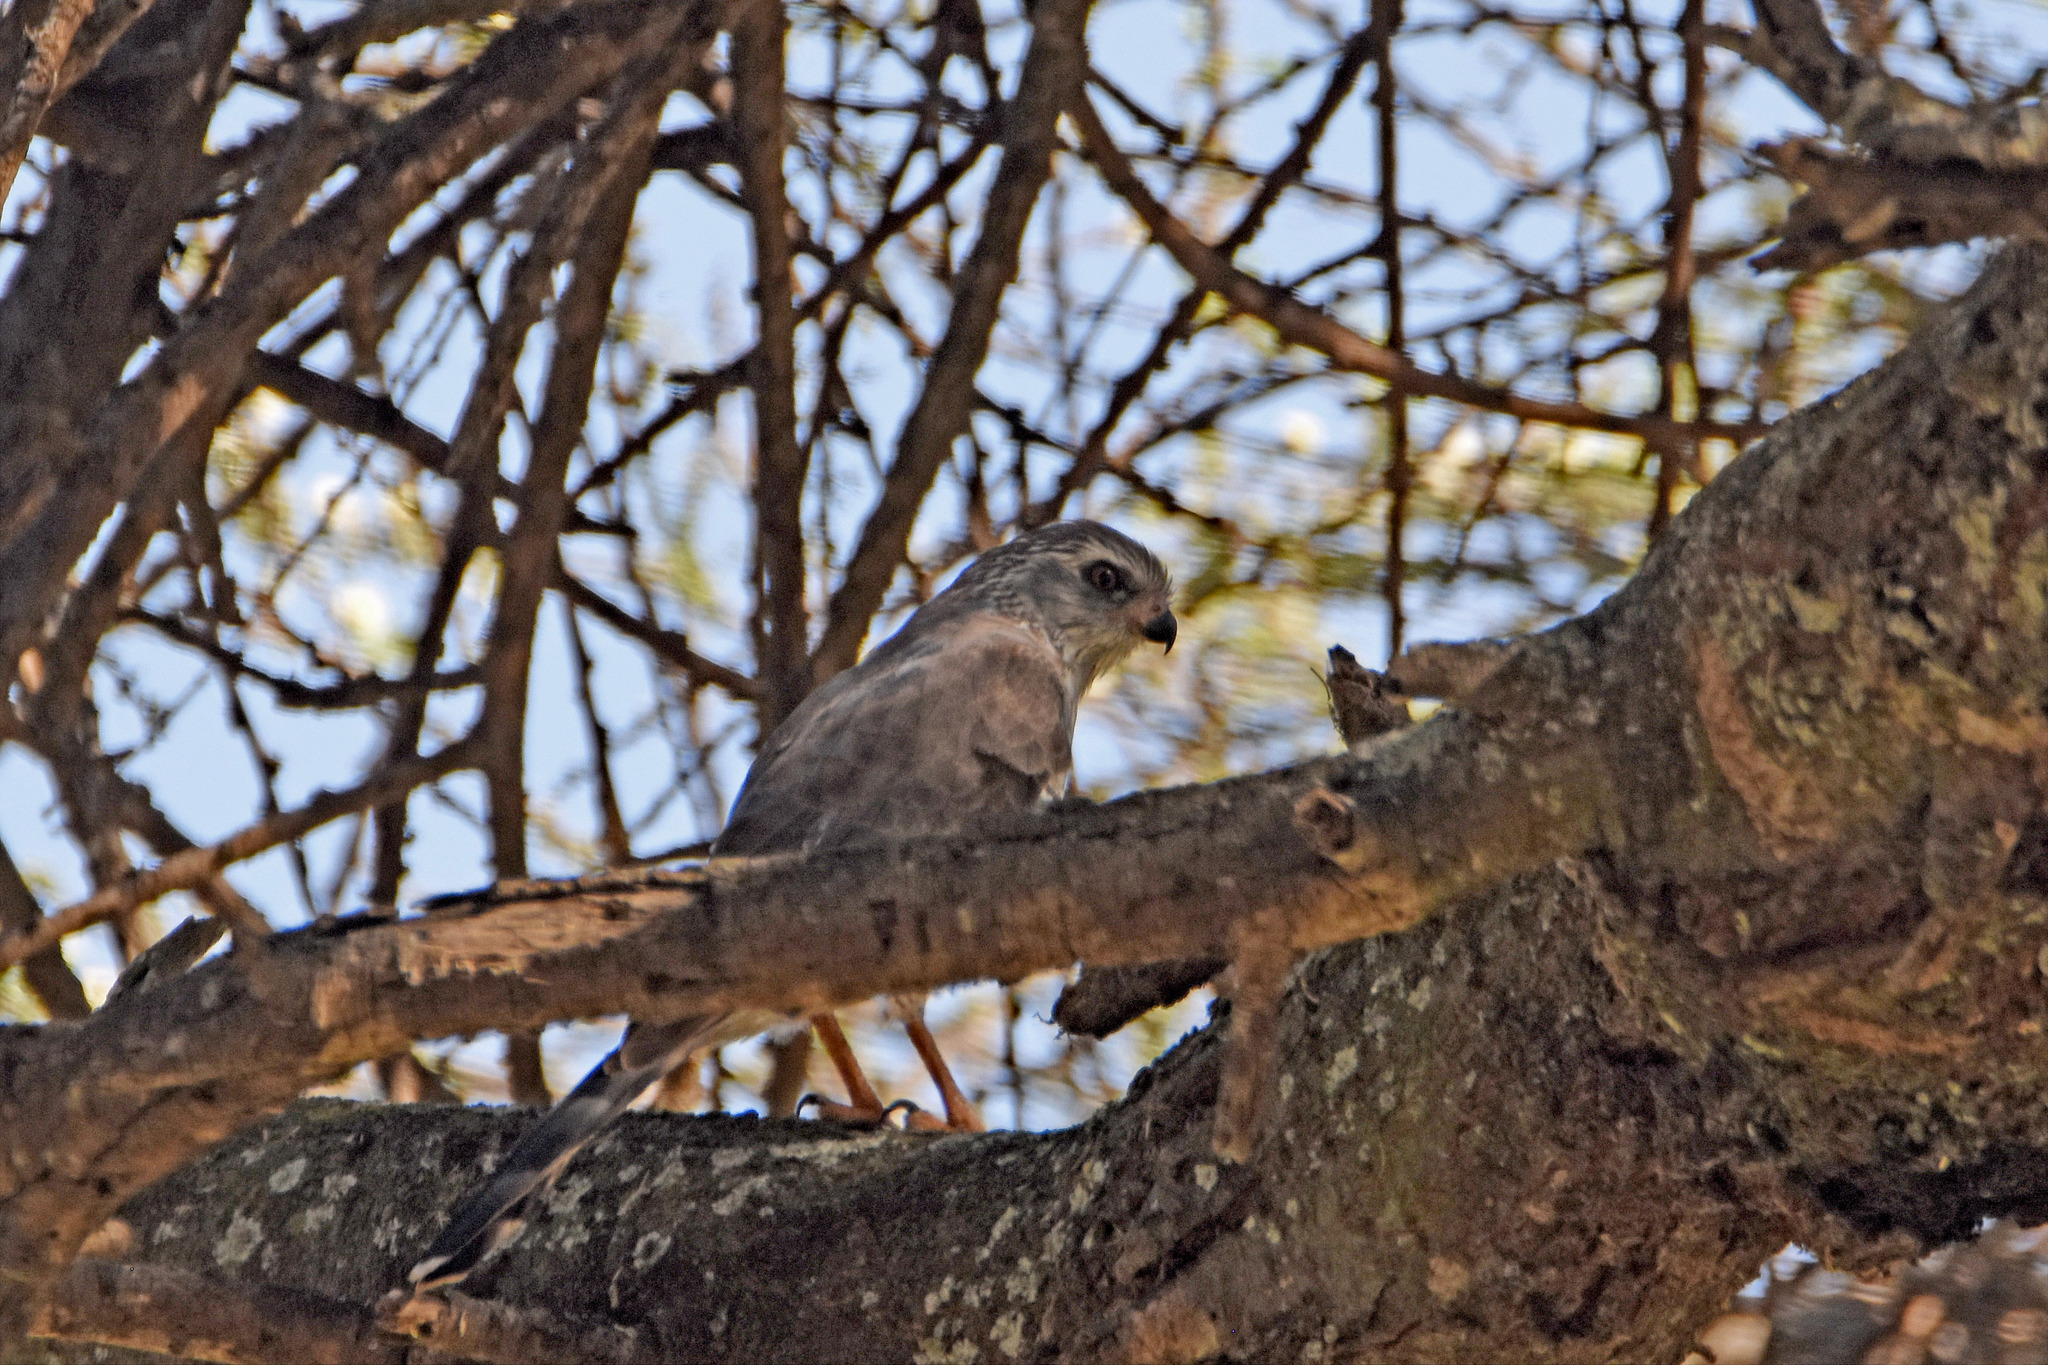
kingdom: Animalia
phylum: Chordata
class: Aves
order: Accipitriformes
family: Accipitridae
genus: Micronisus
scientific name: Micronisus gabar
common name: Gabar goshawk
